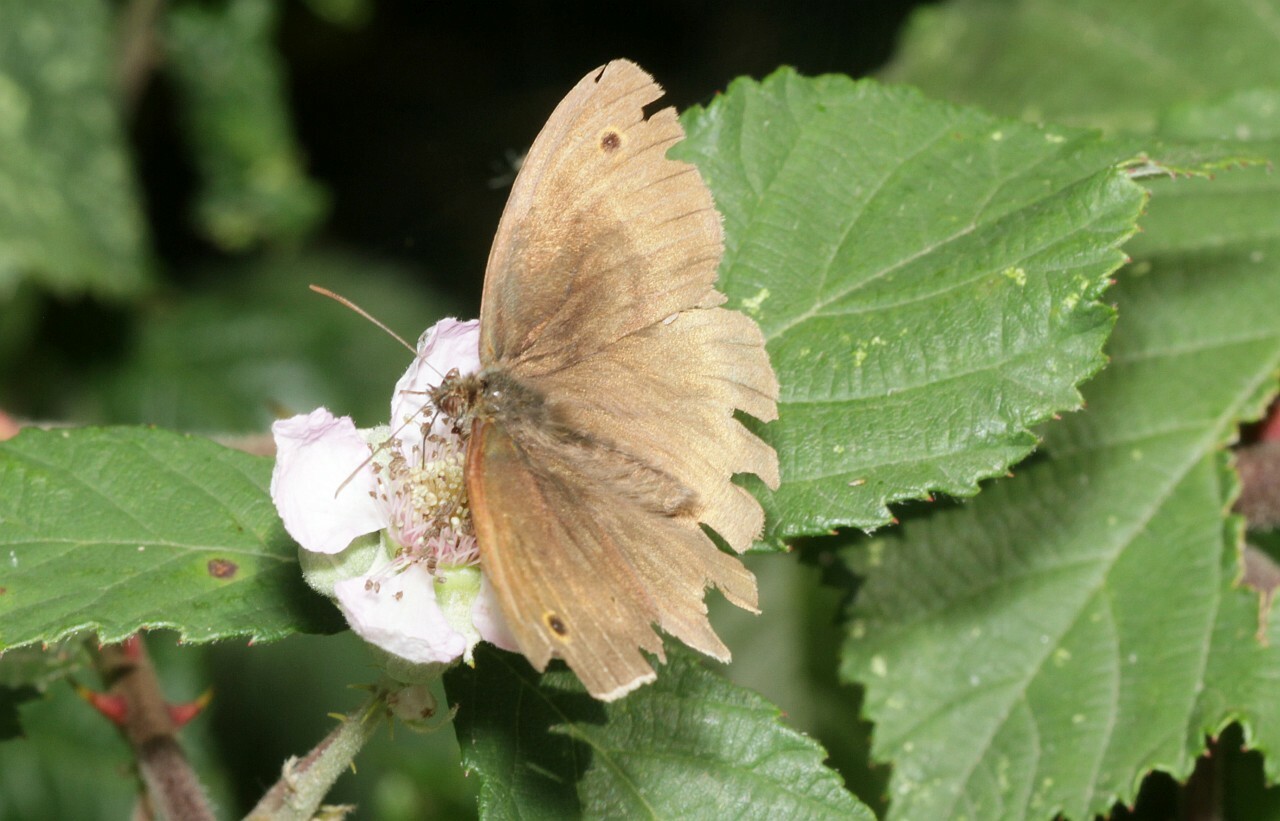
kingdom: Animalia
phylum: Arthropoda
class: Insecta
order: Lepidoptera
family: Nymphalidae
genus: Maniola
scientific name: Maniola jurtina
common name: Meadow brown
